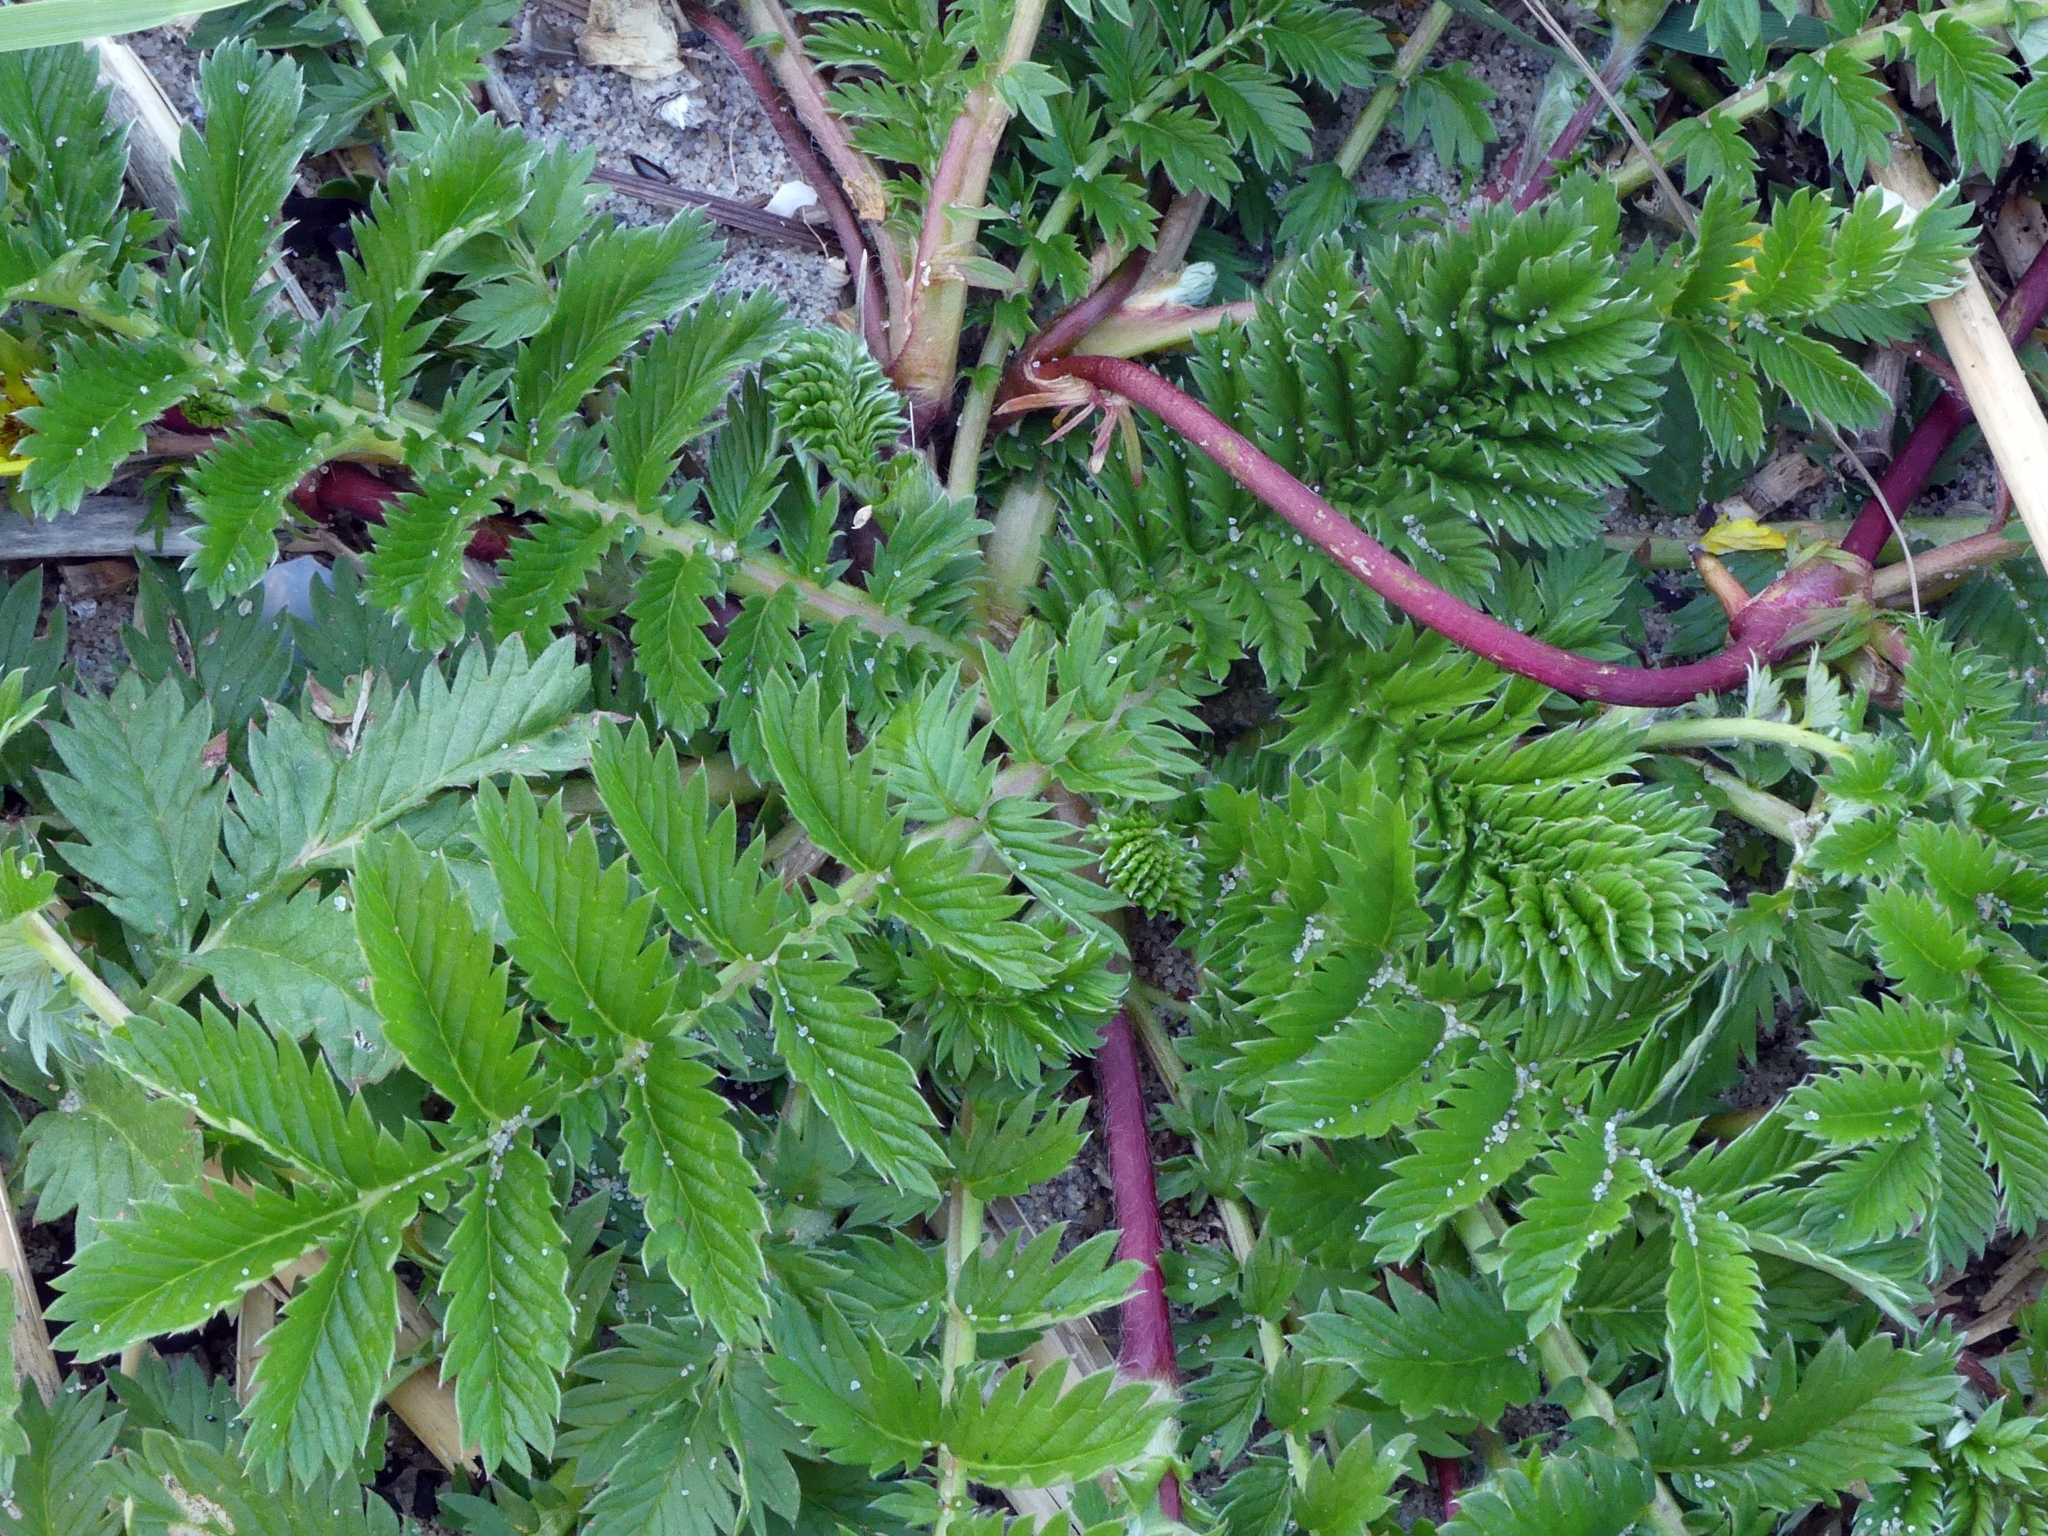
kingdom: Plantae
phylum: Tracheophyta
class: Magnoliopsida
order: Rosales
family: Rosaceae
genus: Argentina
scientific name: Argentina anserina
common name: Common silverweed
